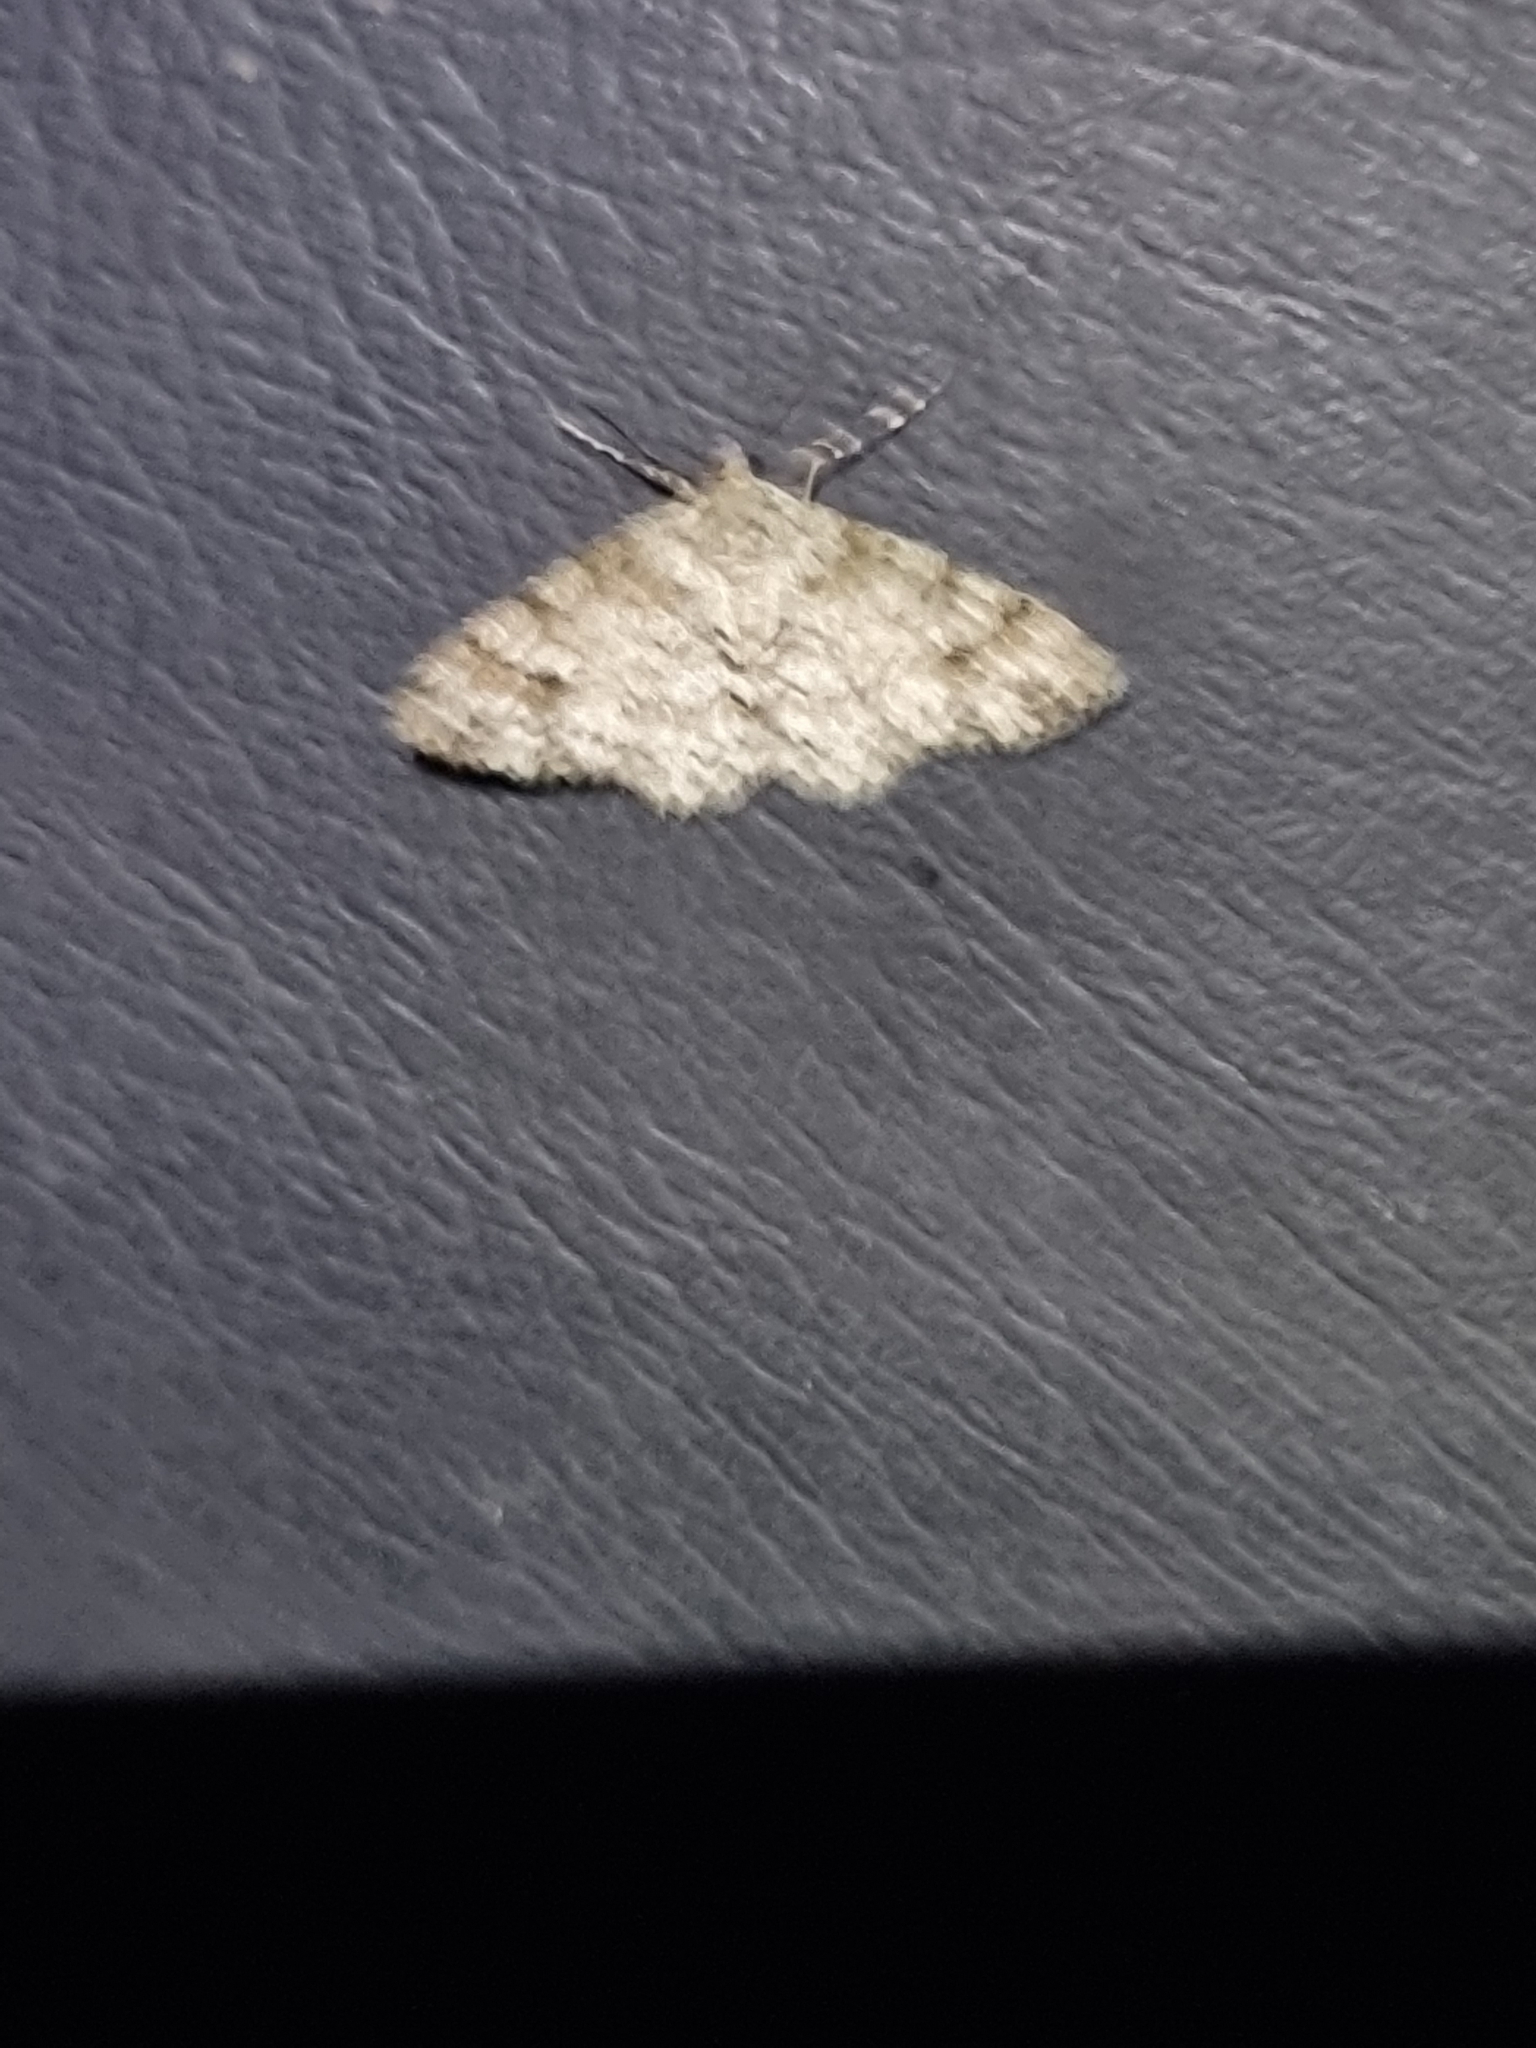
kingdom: Animalia
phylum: Arthropoda
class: Insecta
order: Lepidoptera
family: Geometridae
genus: Myrioblephara
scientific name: Myrioblephara desumpta
